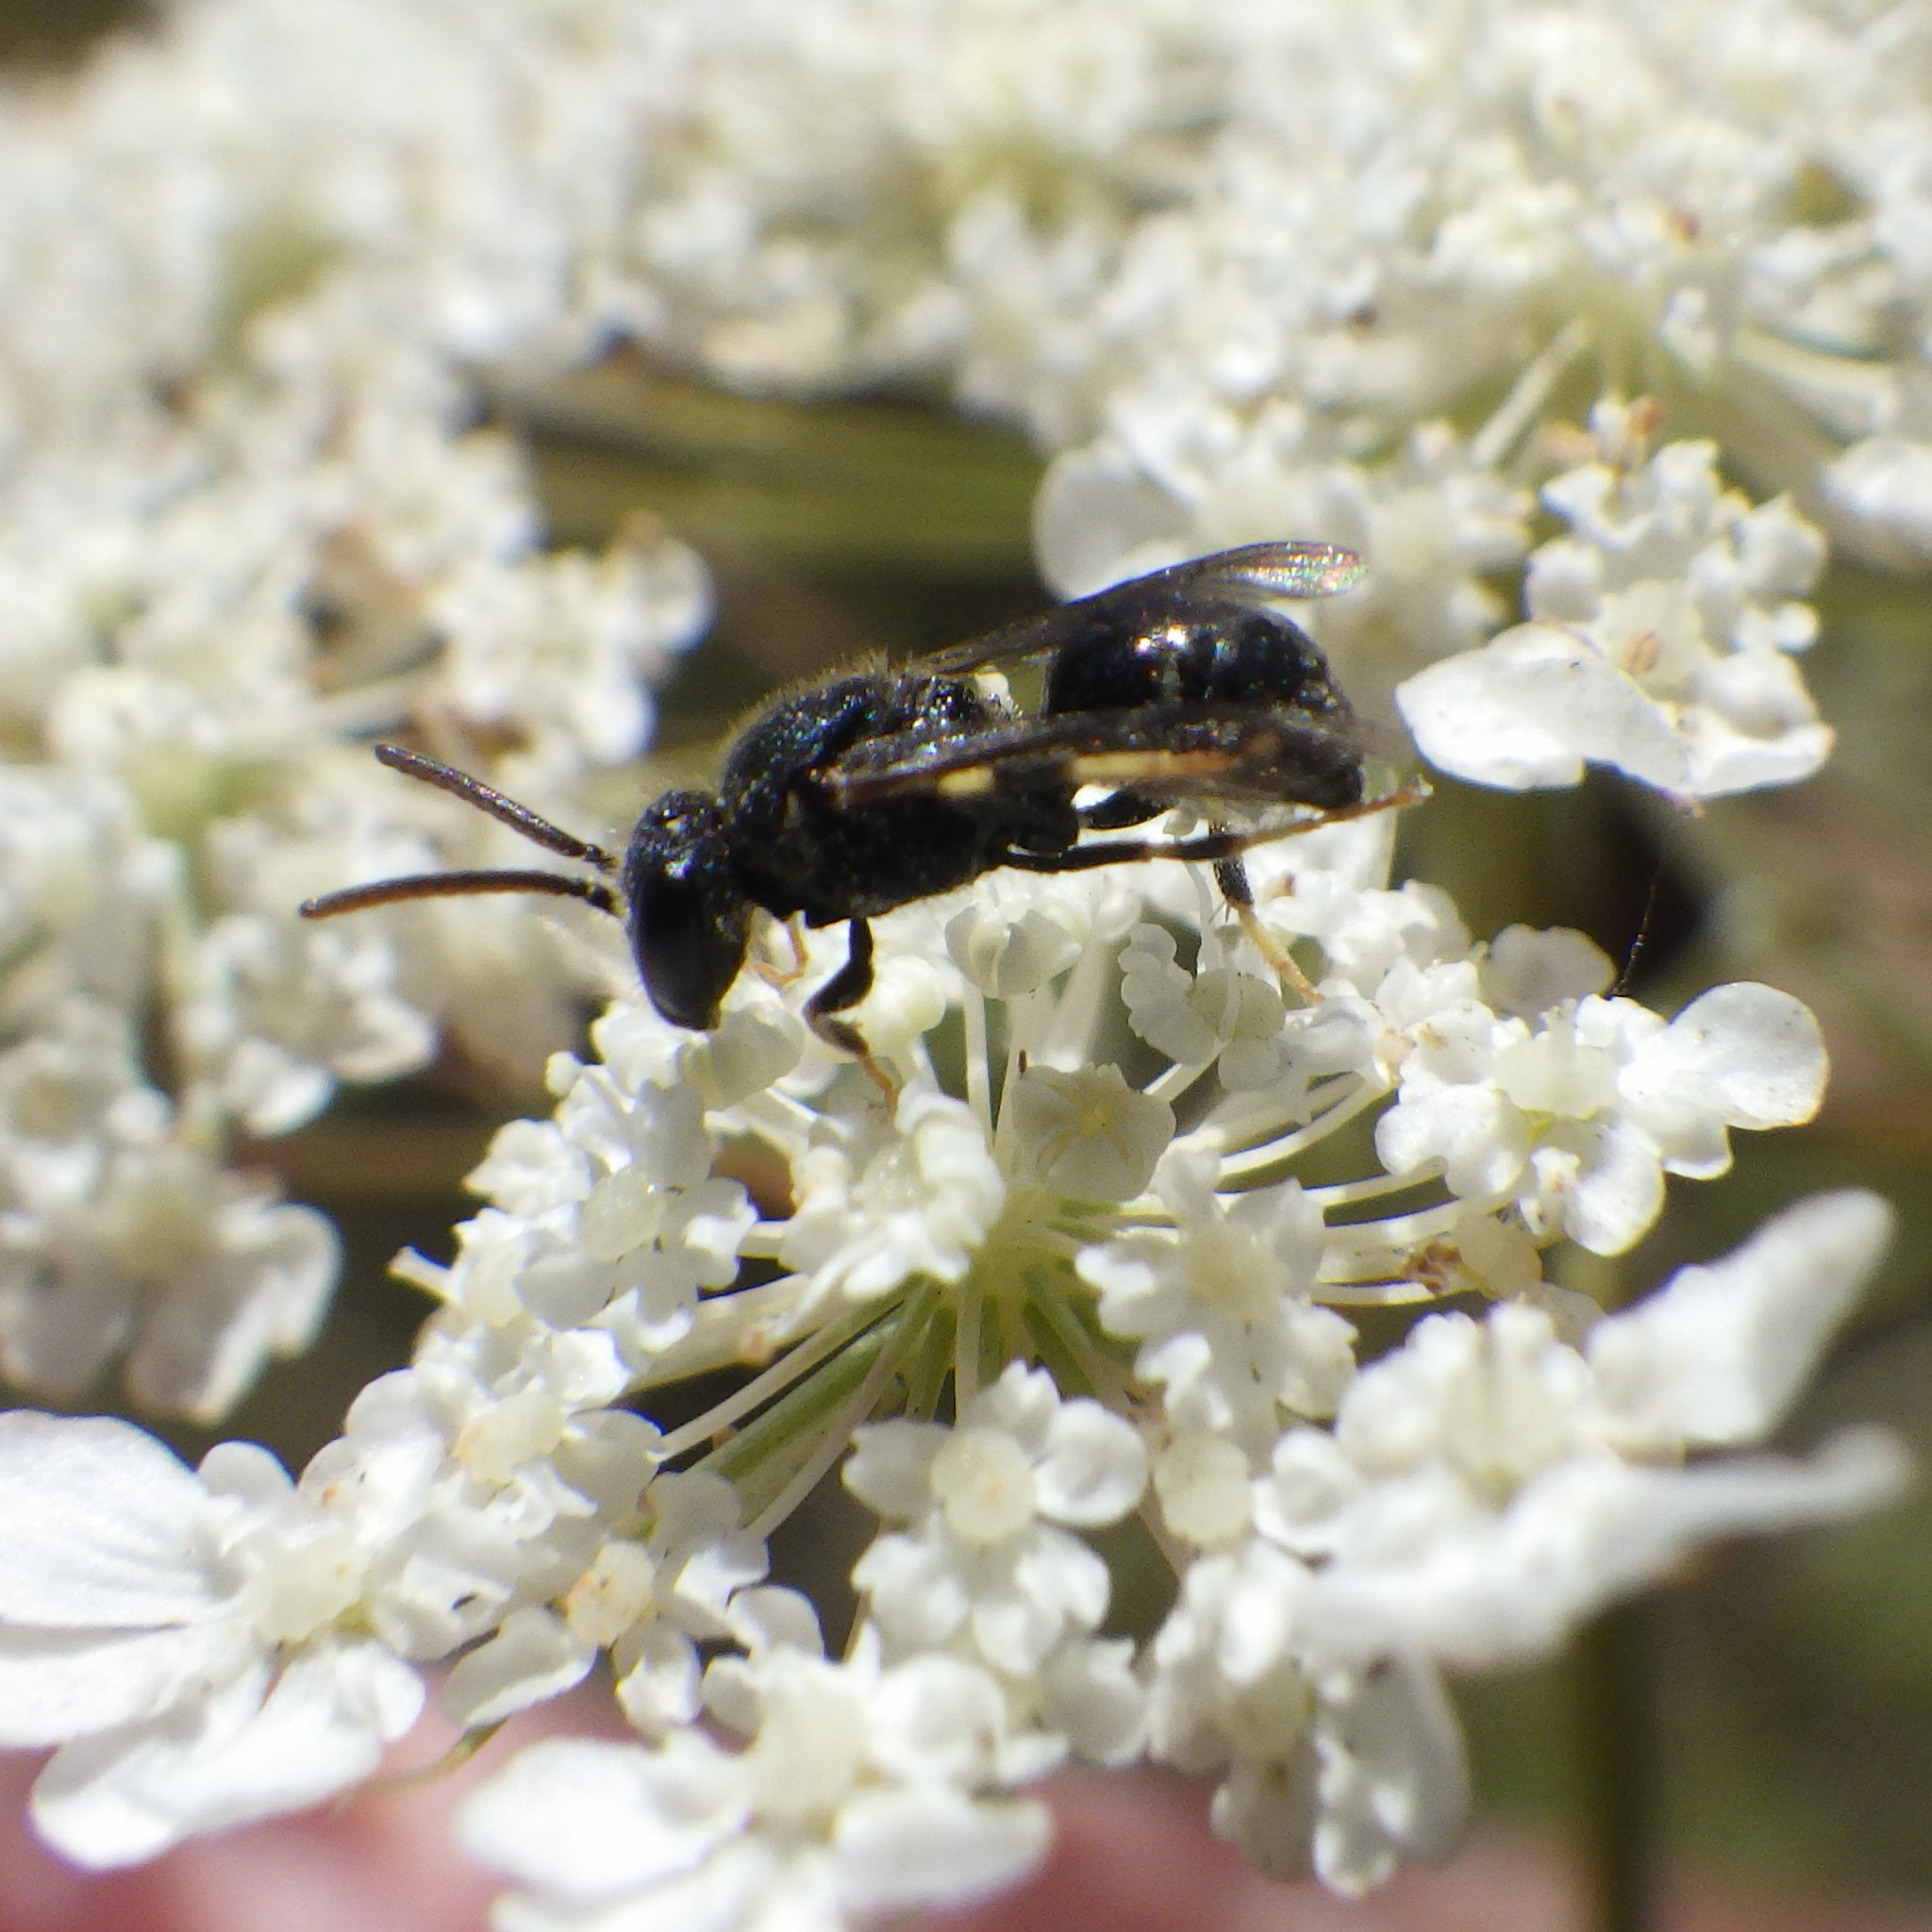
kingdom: Animalia
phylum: Arthropoda
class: Insecta
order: Hymenoptera
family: Colletidae
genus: Hylaeus
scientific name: Hylaeus punctatus
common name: Punctate masked bee
